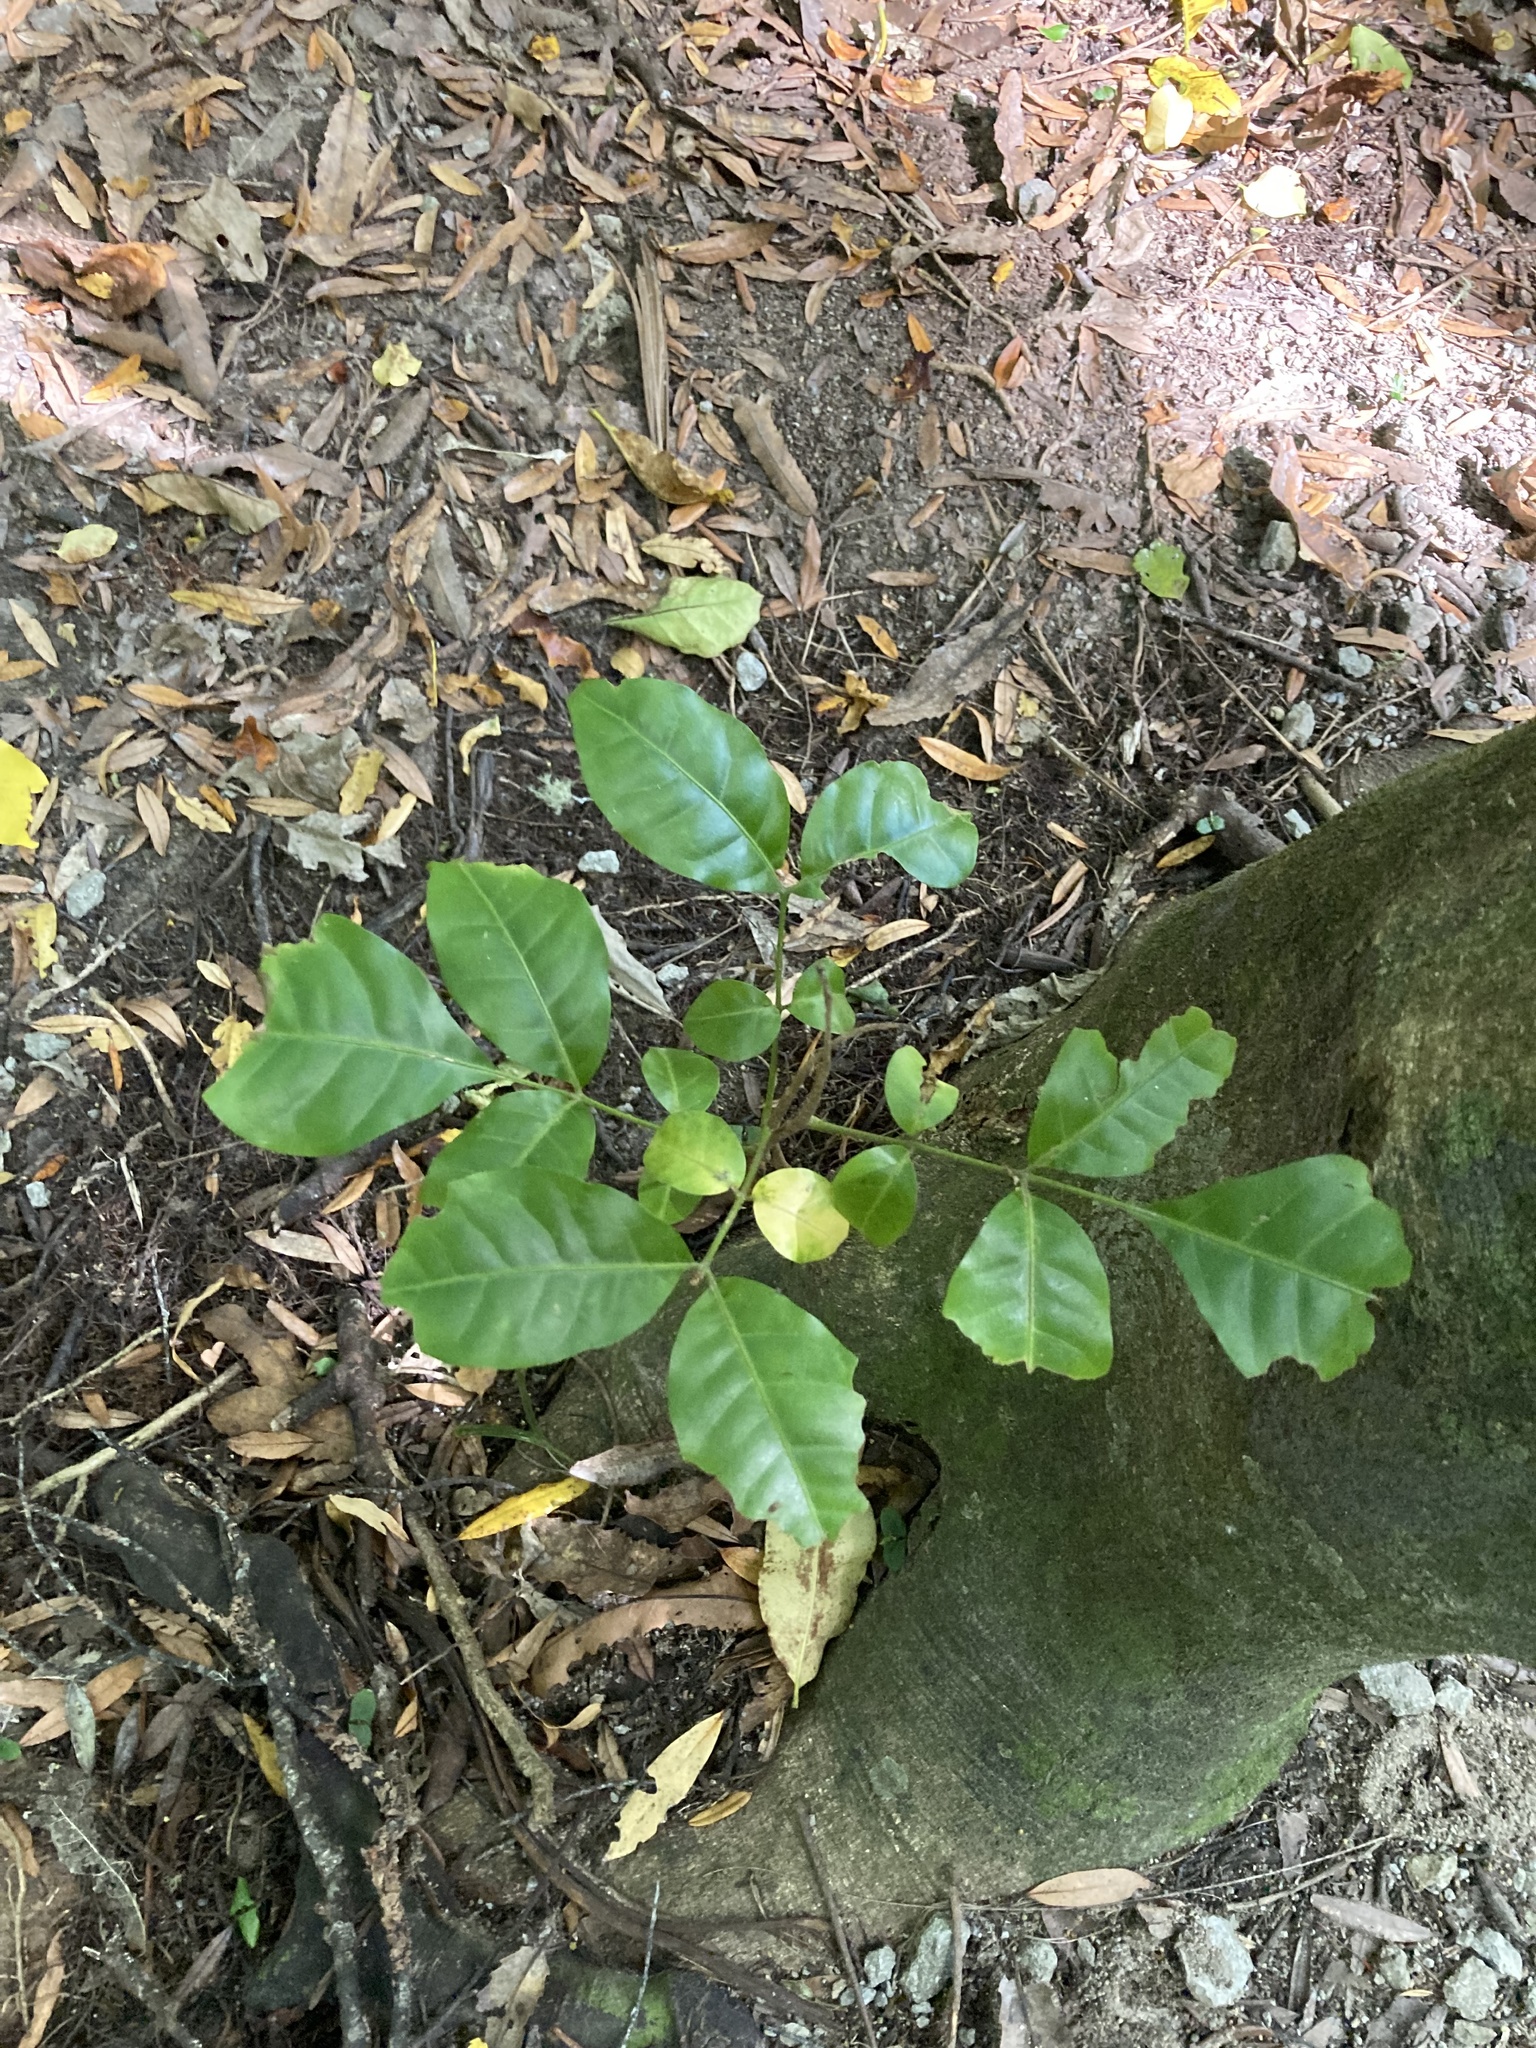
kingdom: Plantae
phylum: Tracheophyta
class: Magnoliopsida
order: Sapindales
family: Meliaceae
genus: Didymocheton
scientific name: Didymocheton spectabilis
